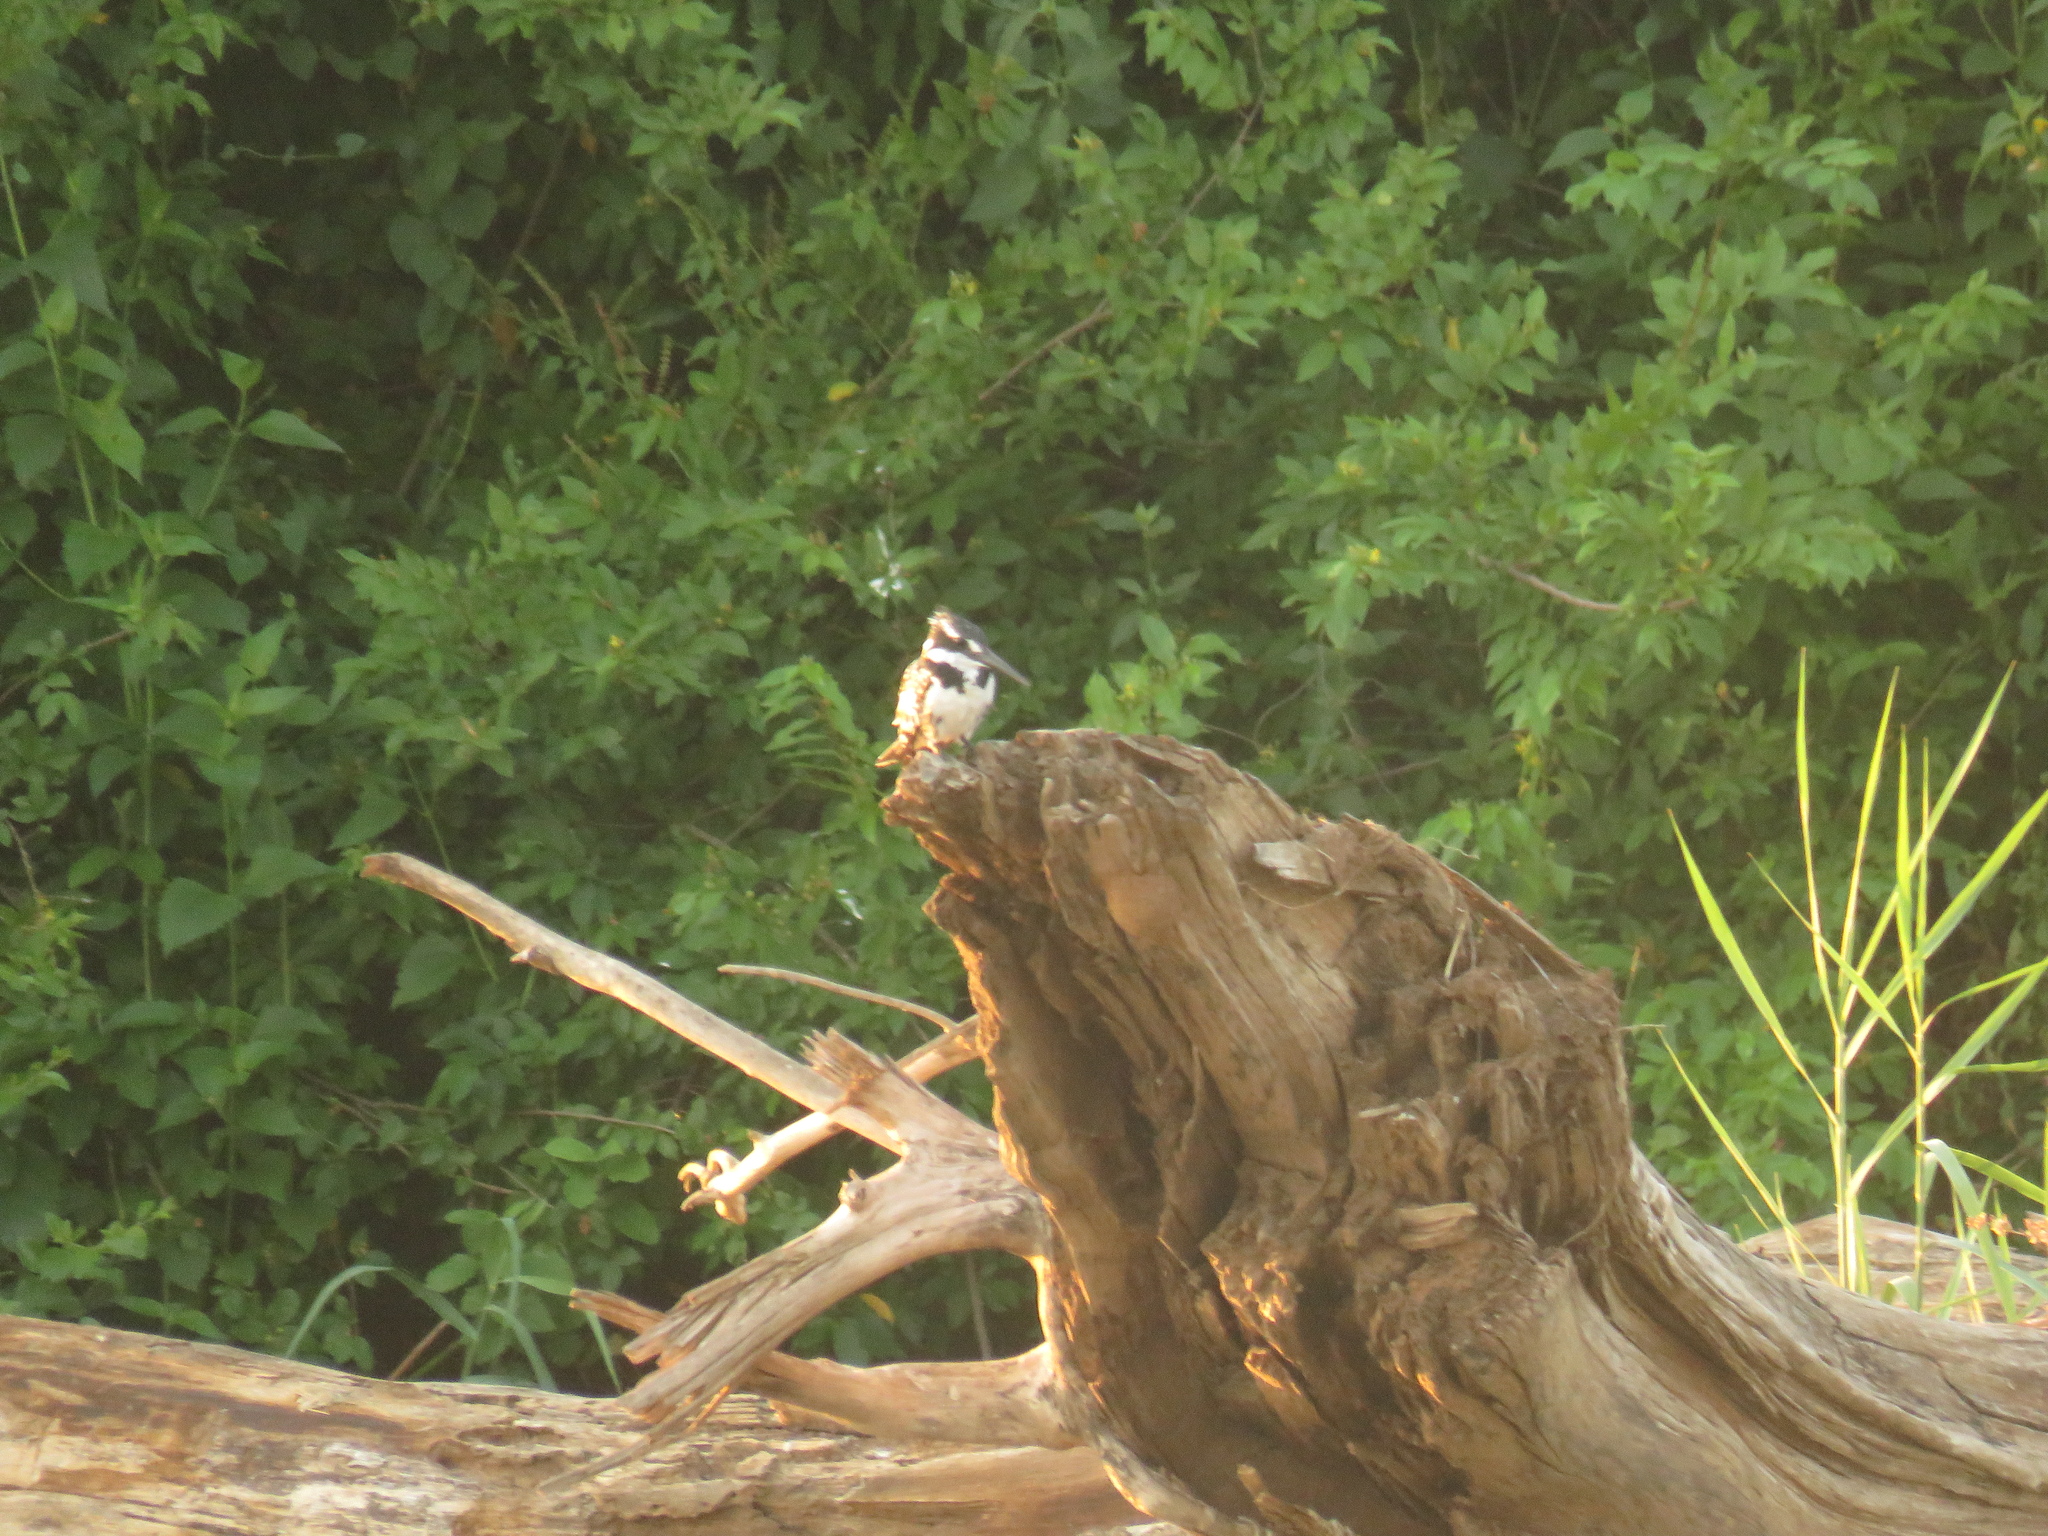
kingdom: Animalia
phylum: Chordata
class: Aves
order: Coraciiformes
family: Alcedinidae
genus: Ceryle
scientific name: Ceryle rudis
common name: Pied kingfisher
